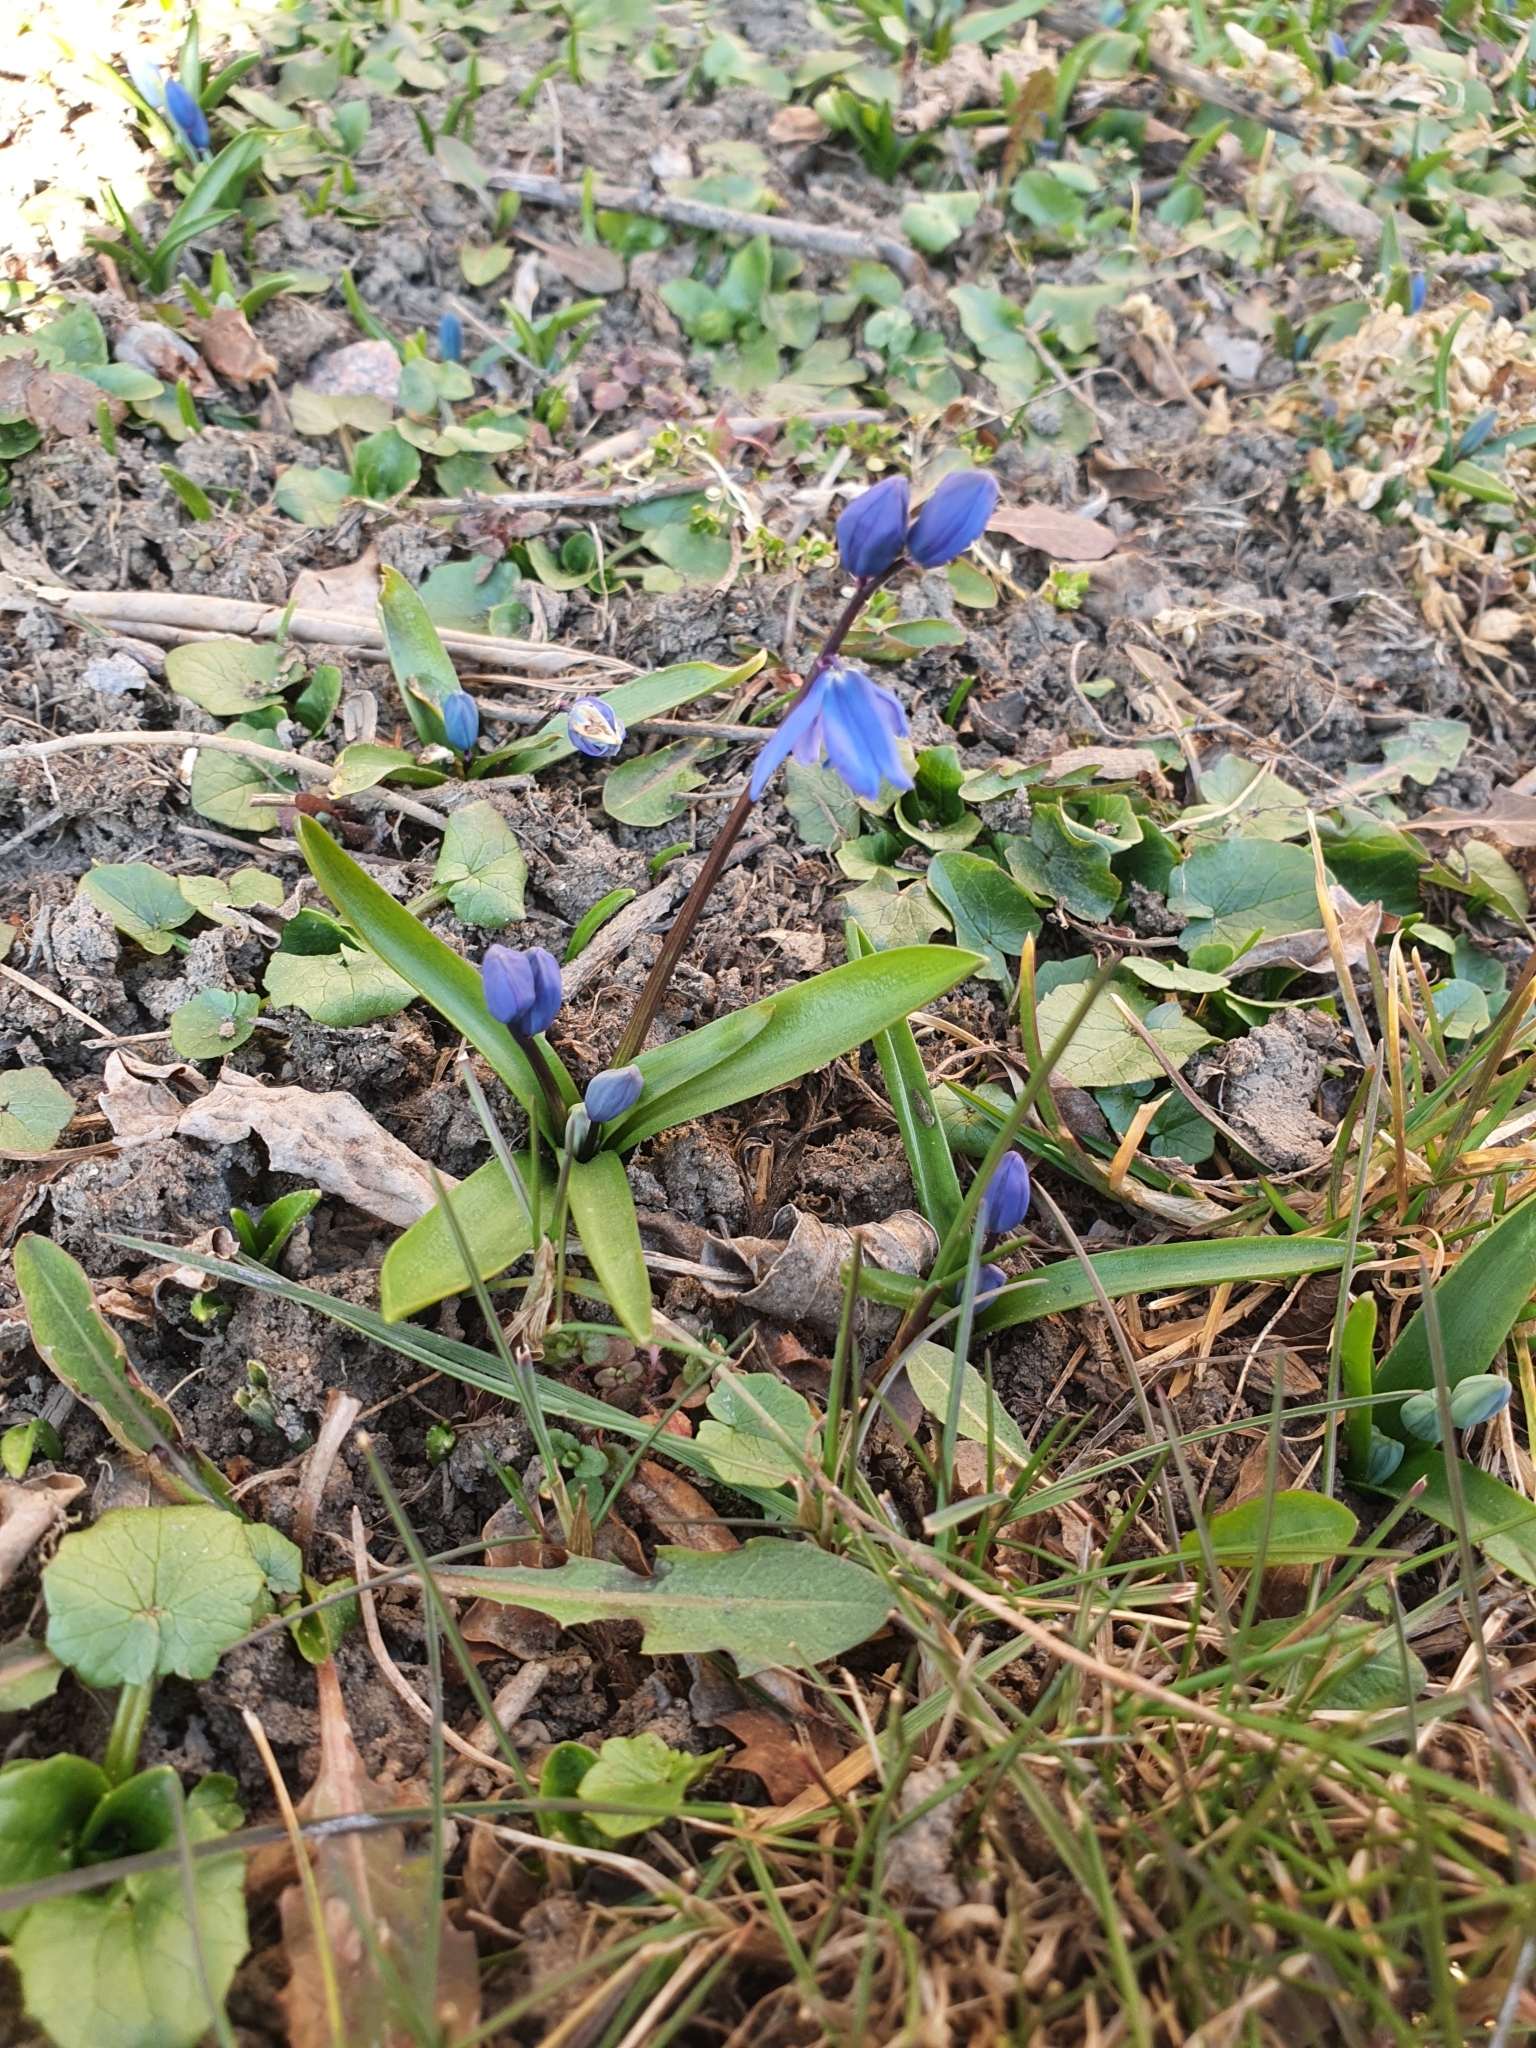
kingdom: Plantae
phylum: Tracheophyta
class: Liliopsida
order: Asparagales
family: Asparagaceae
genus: Scilla
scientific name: Scilla siberica
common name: Siberian squill
